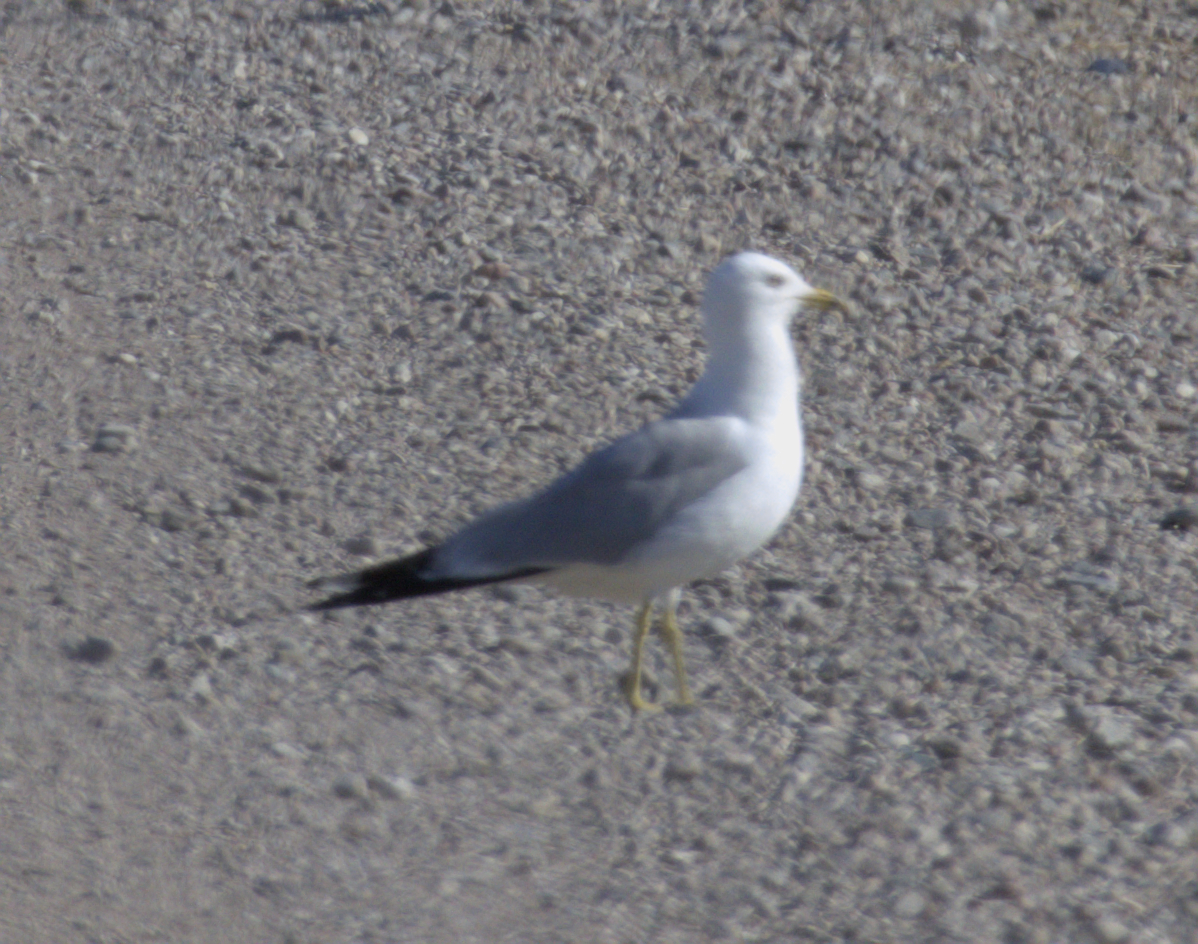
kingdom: Animalia
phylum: Chordata
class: Aves
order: Charadriiformes
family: Laridae
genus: Larus
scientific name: Larus delawarensis
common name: Ring-billed gull
